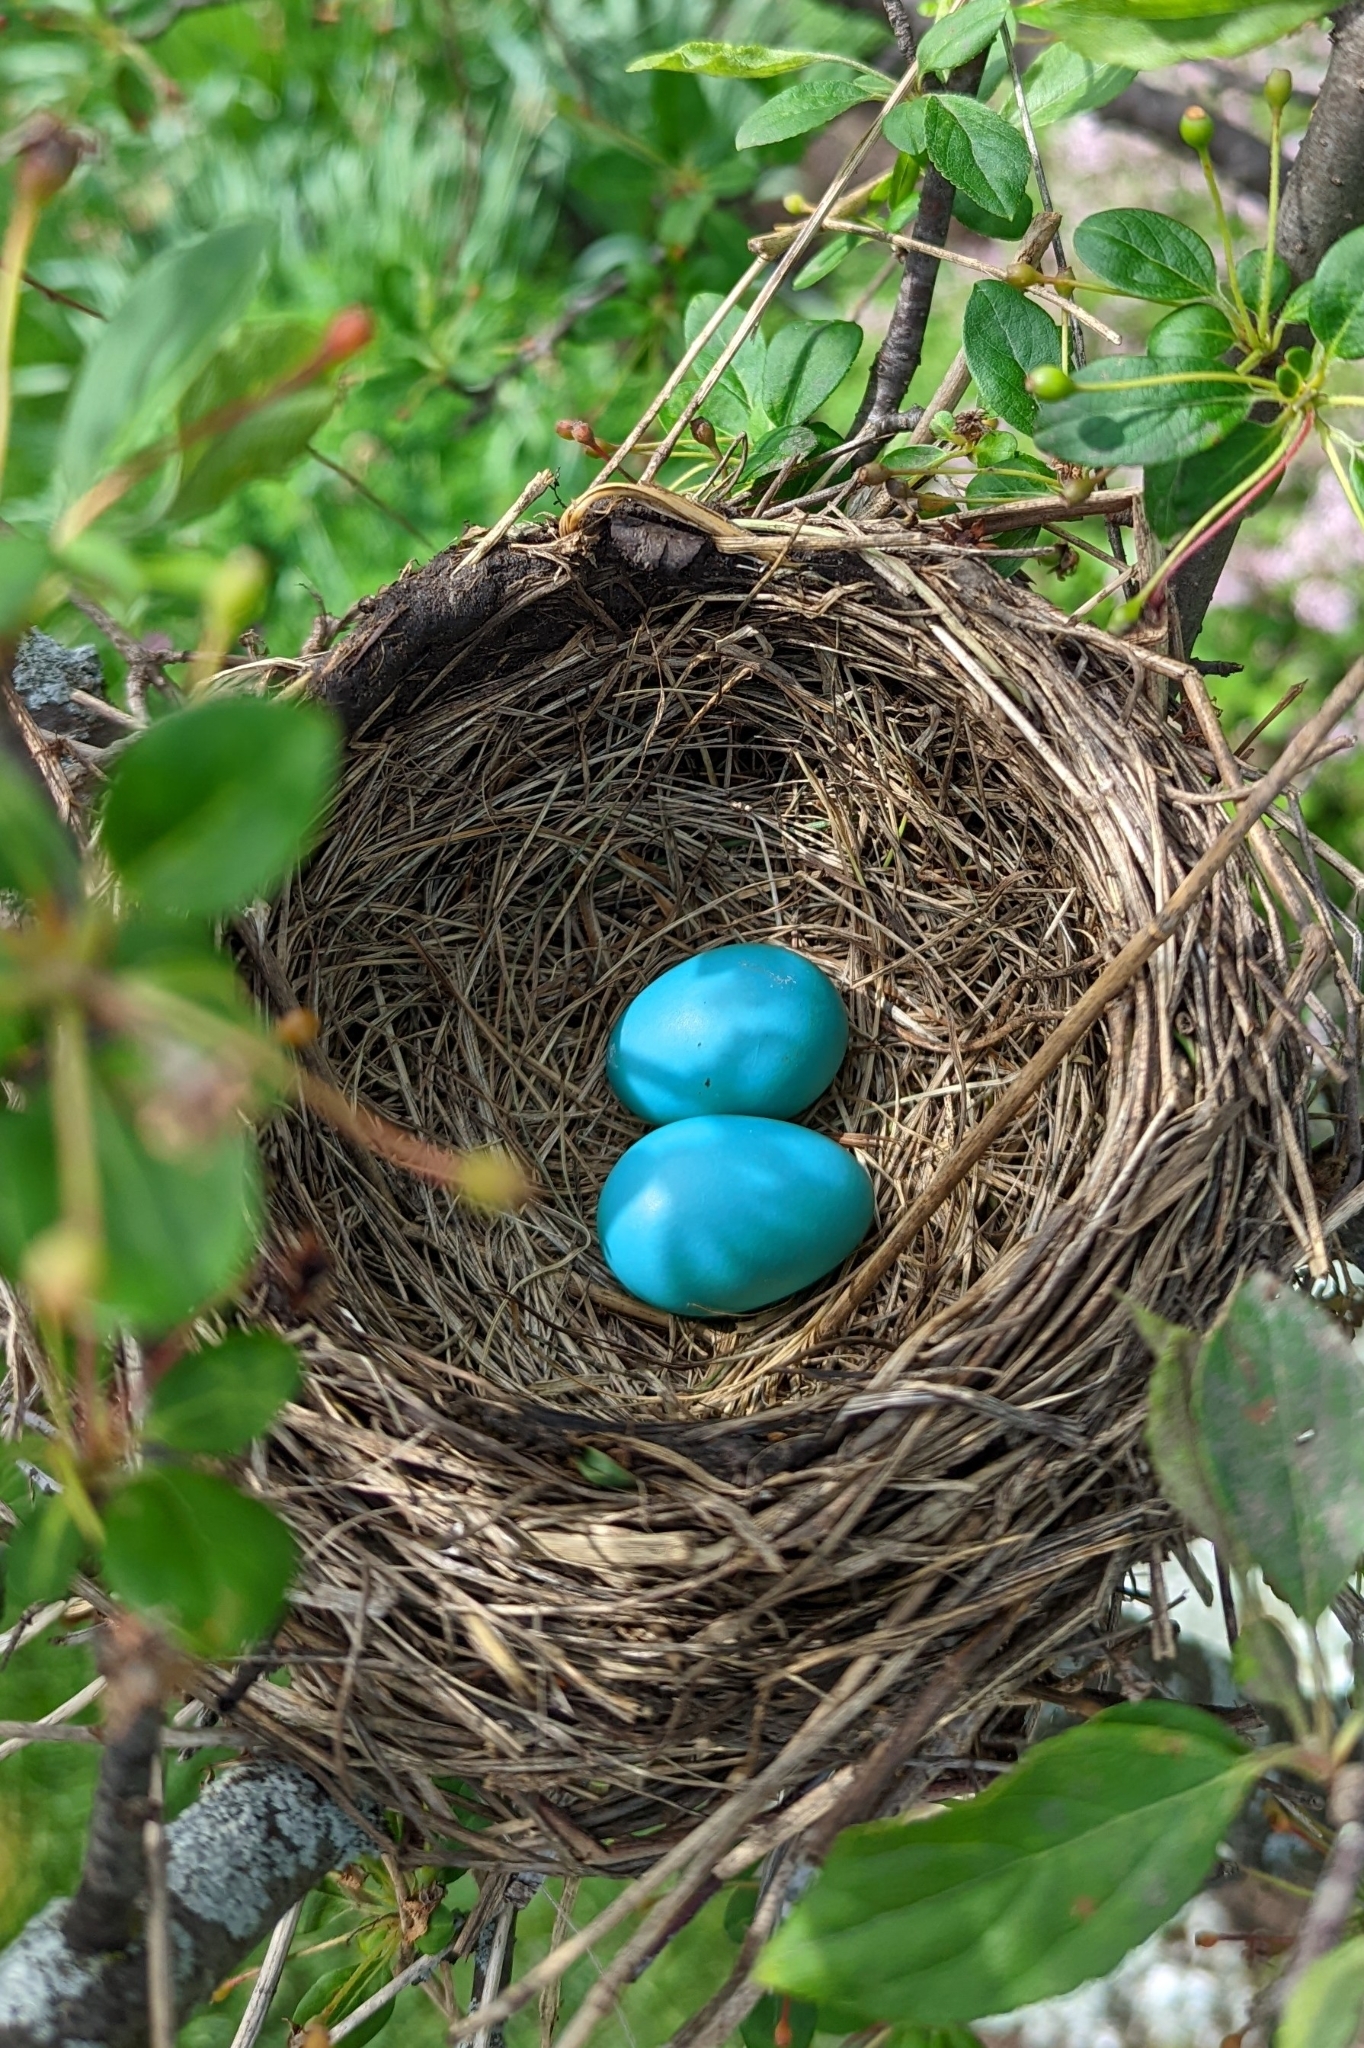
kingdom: Animalia
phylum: Chordata
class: Aves
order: Passeriformes
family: Turdidae
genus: Turdus
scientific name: Turdus migratorius
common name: American robin
